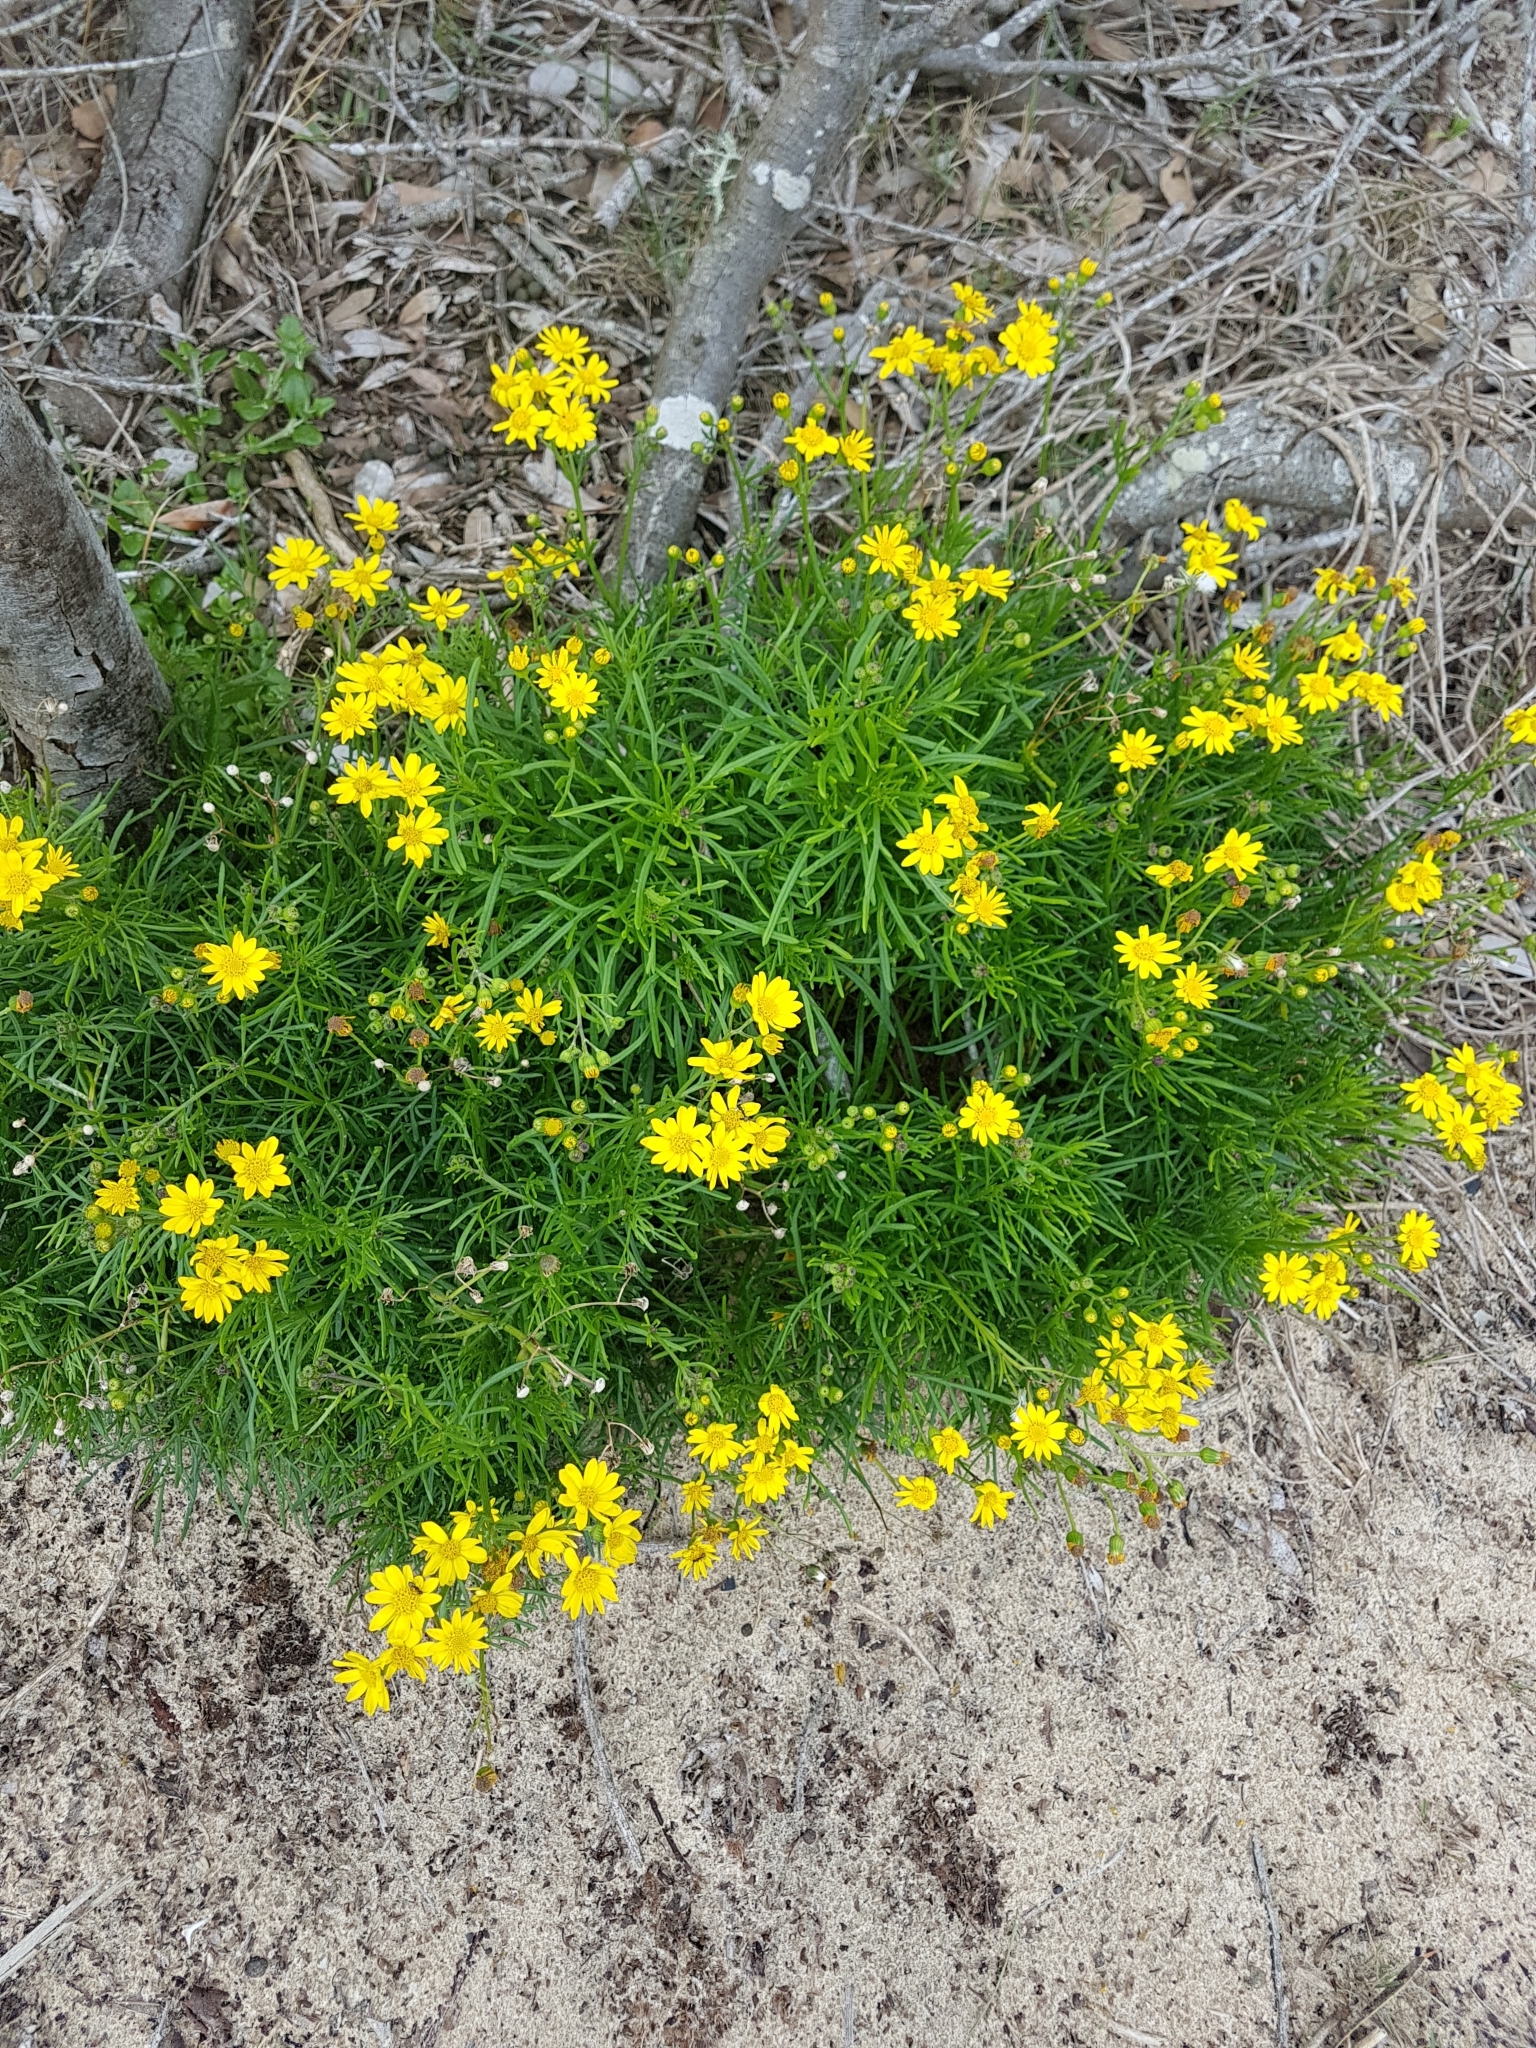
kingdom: Plantae
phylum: Tracheophyta
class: Magnoliopsida
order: Asterales
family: Asteraceae
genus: Senecio
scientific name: Senecio pinnatifolius
